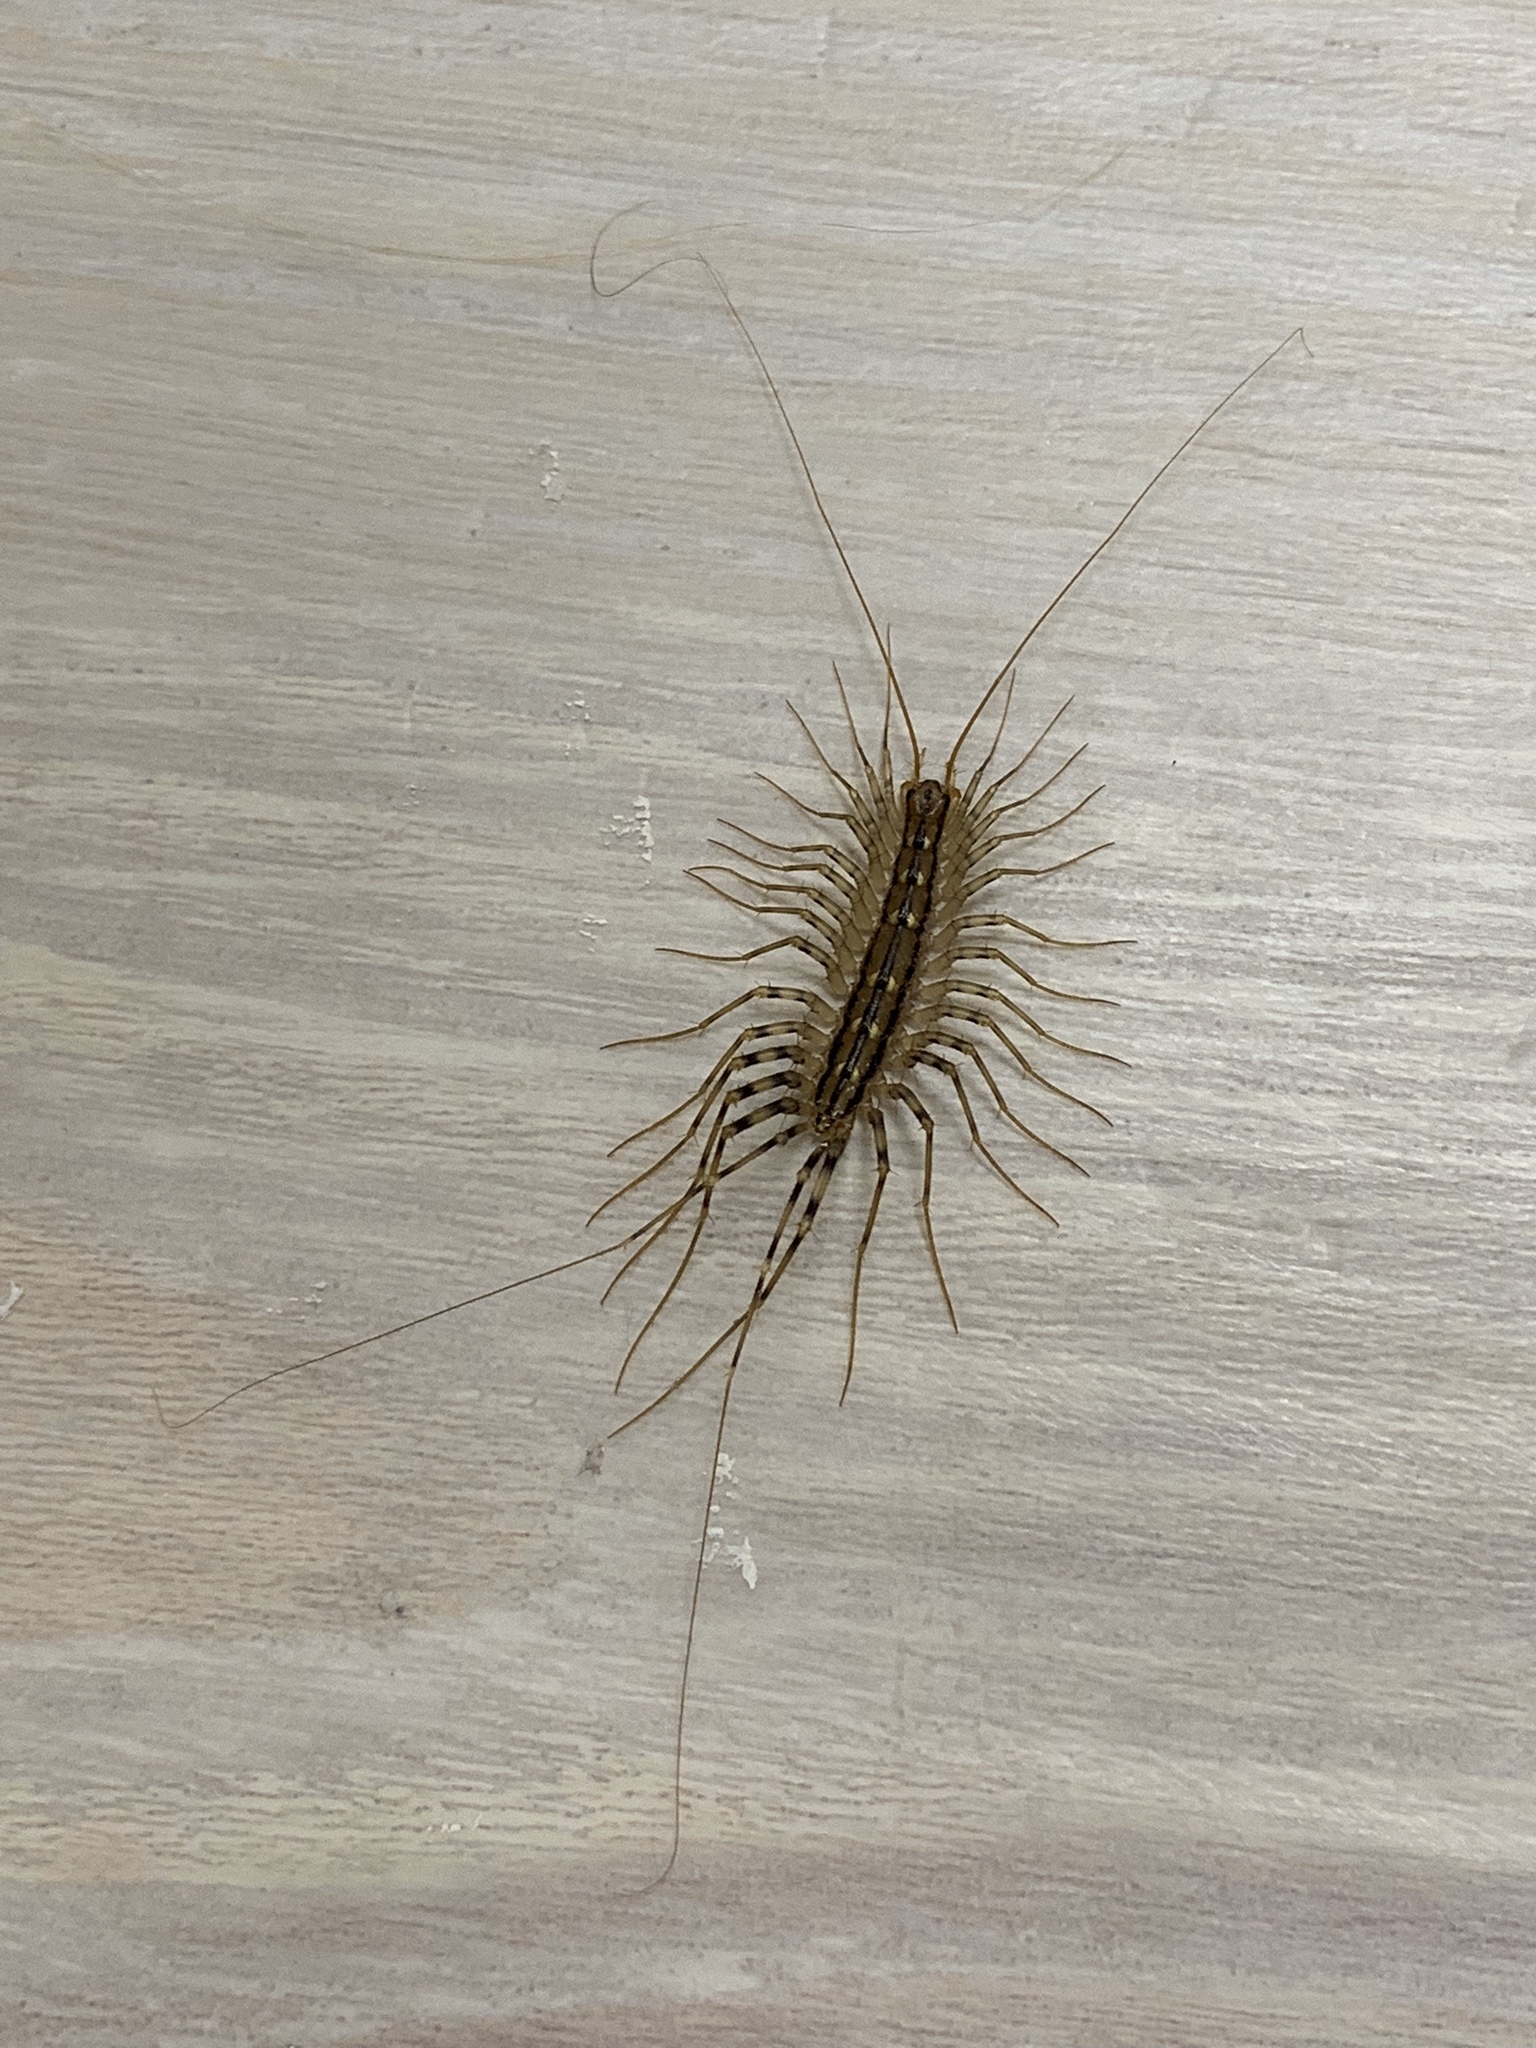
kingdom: Animalia
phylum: Arthropoda
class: Chilopoda
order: Scutigeromorpha
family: Scutigeridae
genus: Scutigera
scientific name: Scutigera coleoptrata
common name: House centipede
